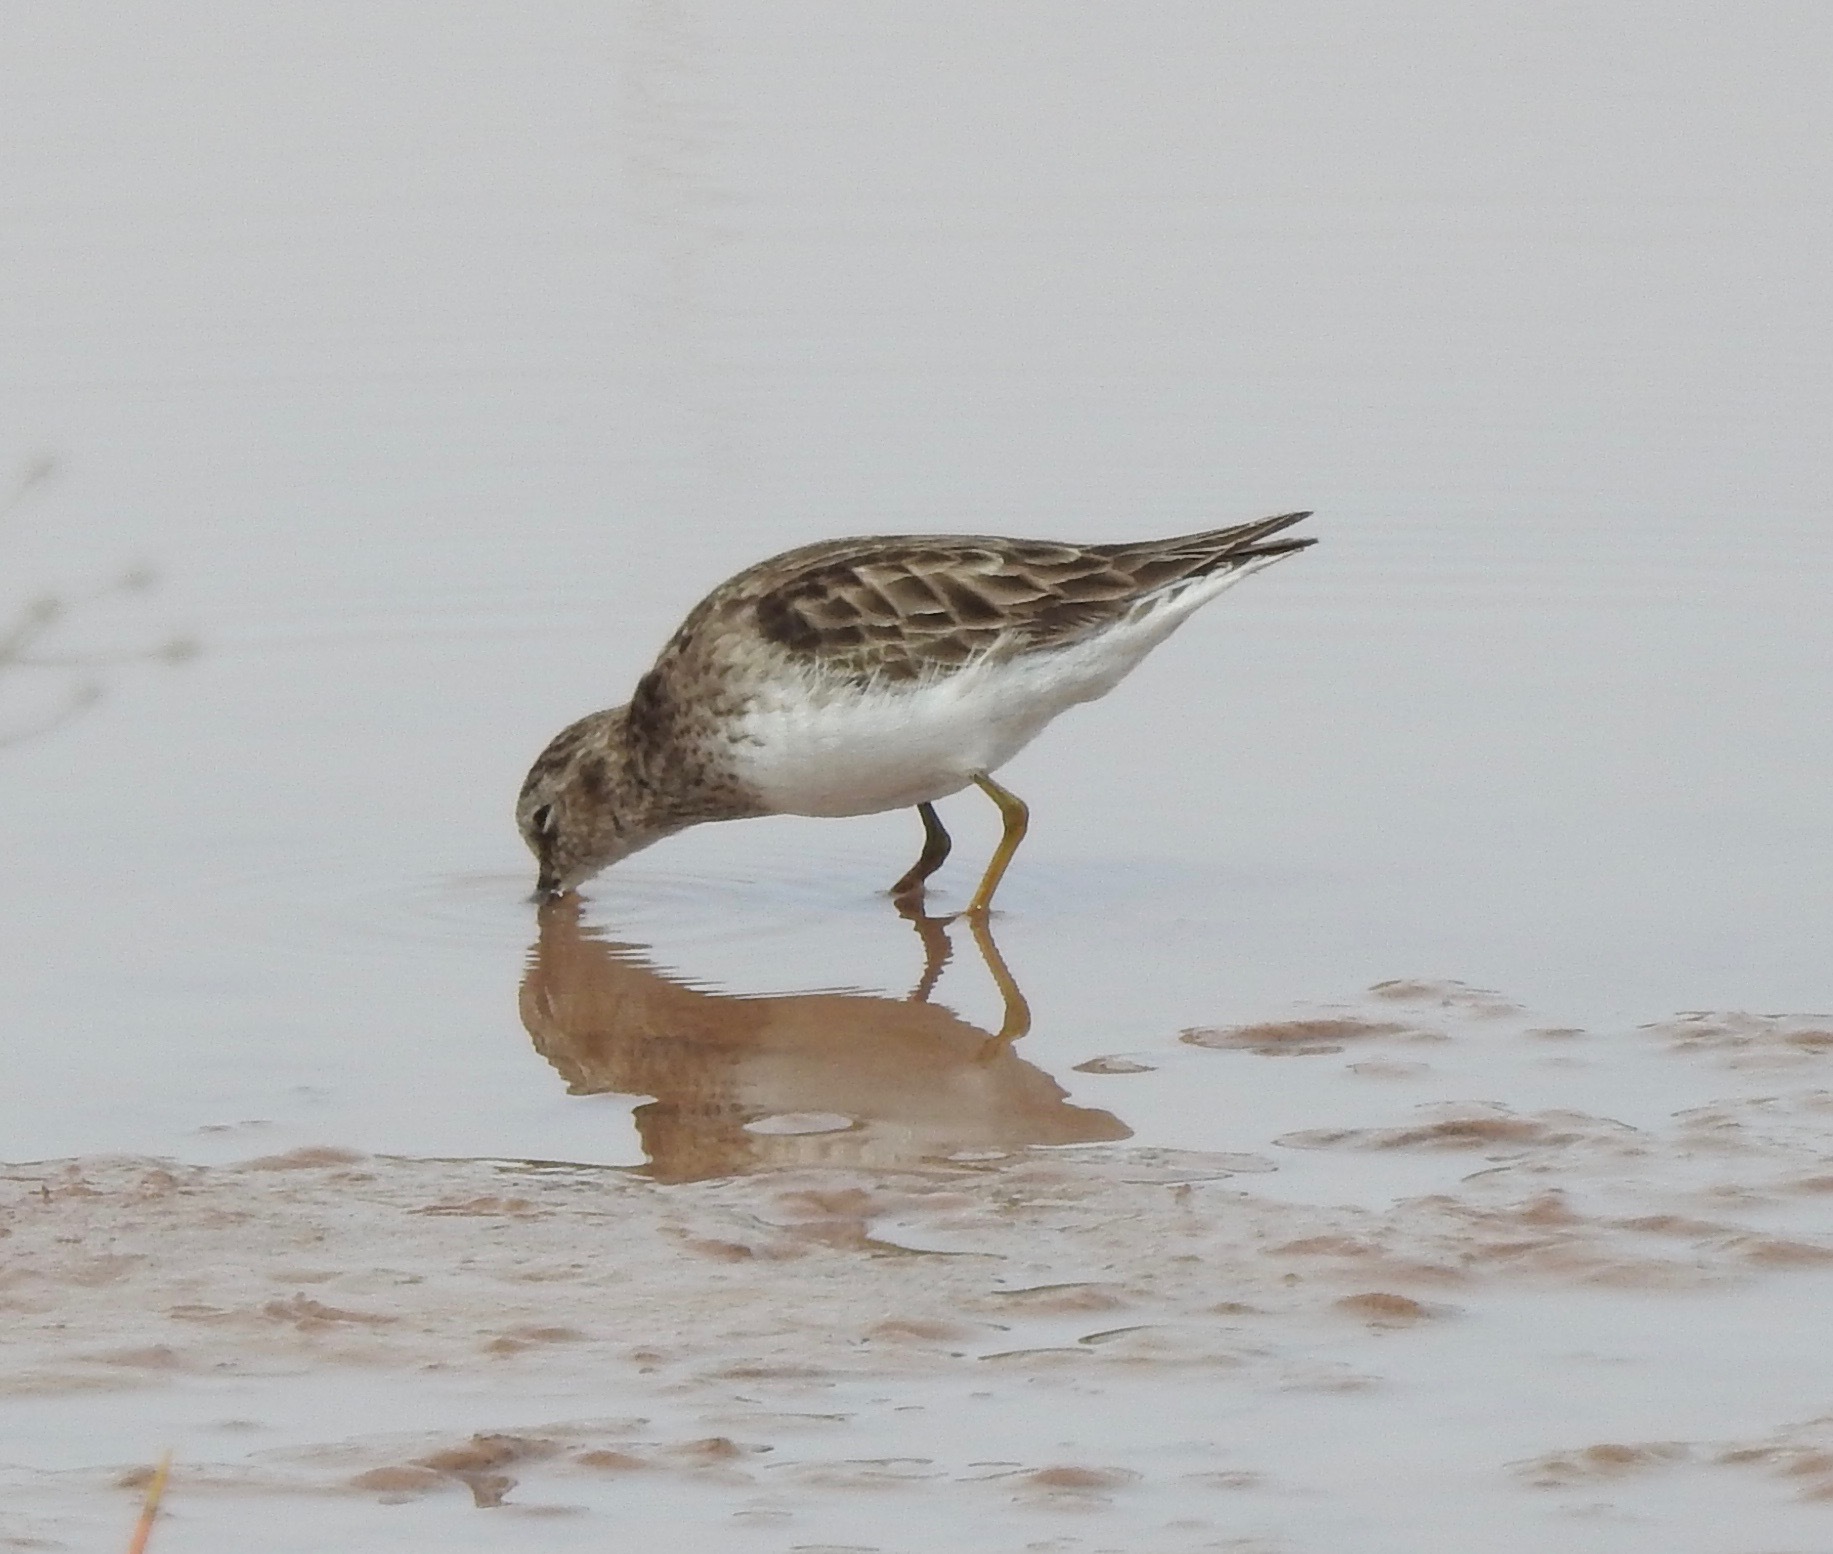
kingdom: Animalia
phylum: Chordata
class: Aves
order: Charadriiformes
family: Scolopacidae
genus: Calidris
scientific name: Calidris minutilla
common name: Least sandpiper
